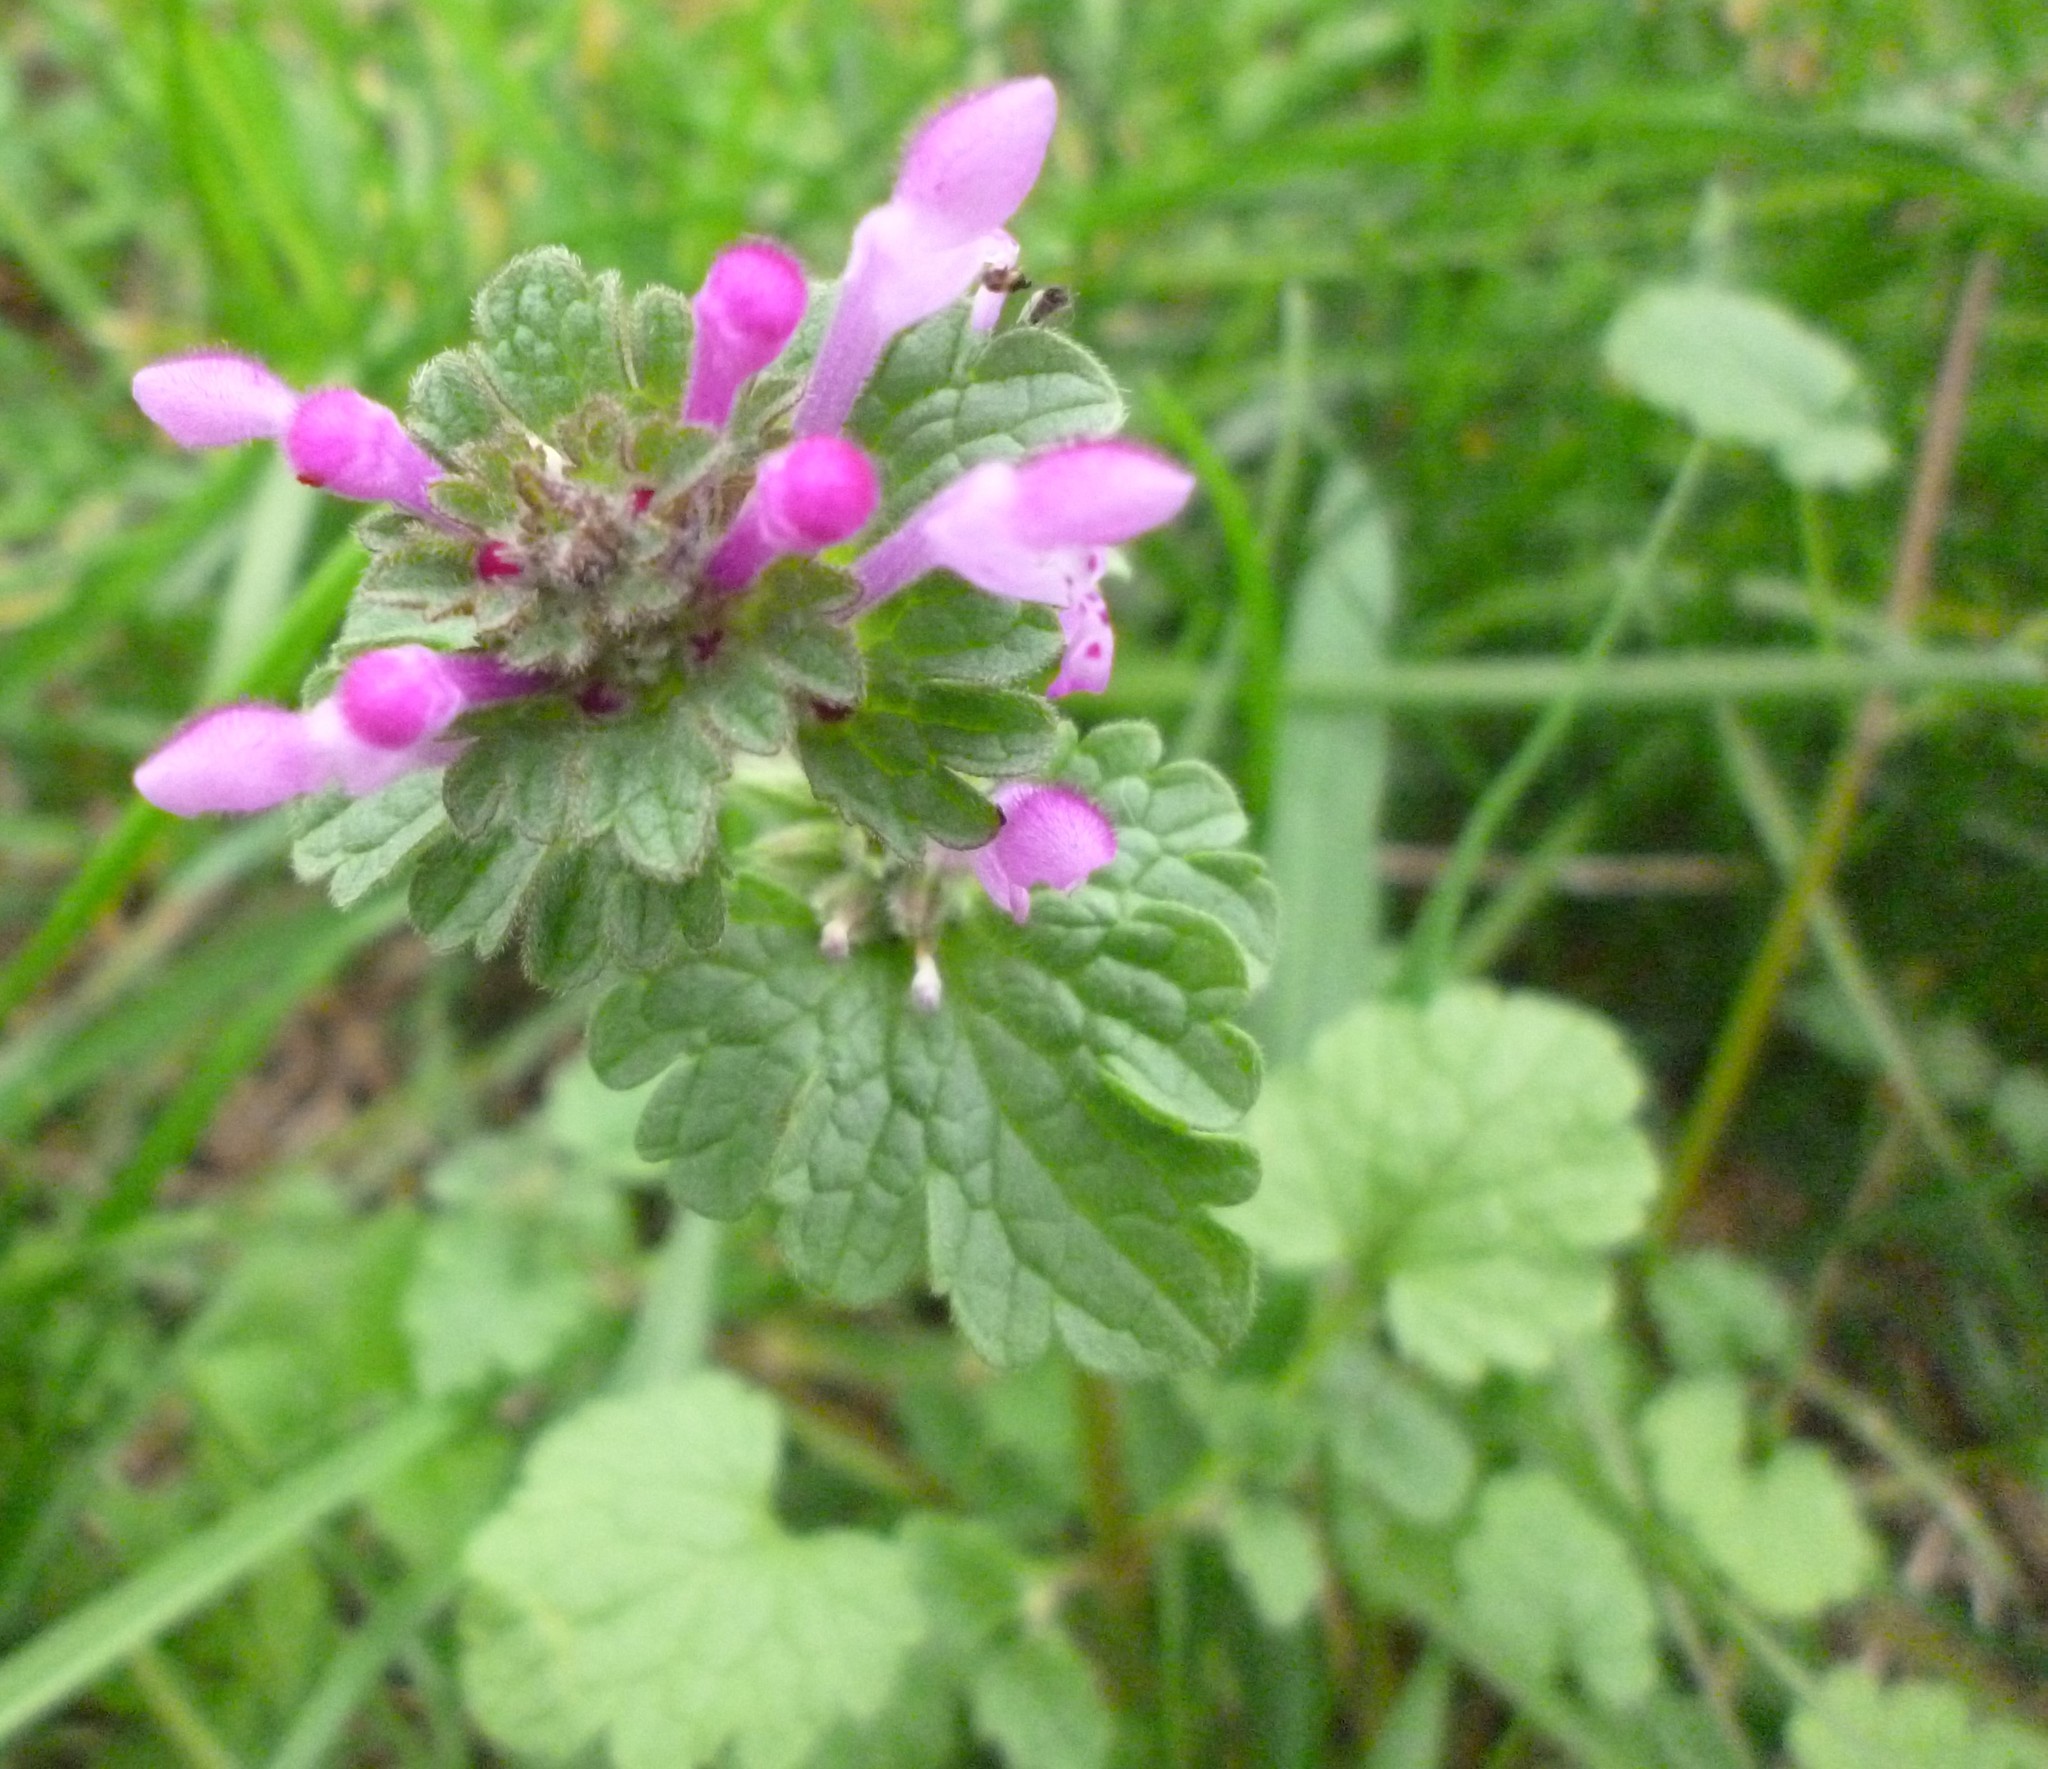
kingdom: Plantae
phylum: Tracheophyta
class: Magnoliopsida
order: Lamiales
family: Lamiaceae
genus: Lamium
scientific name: Lamium amplexicaule
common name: Henbit dead-nettle
